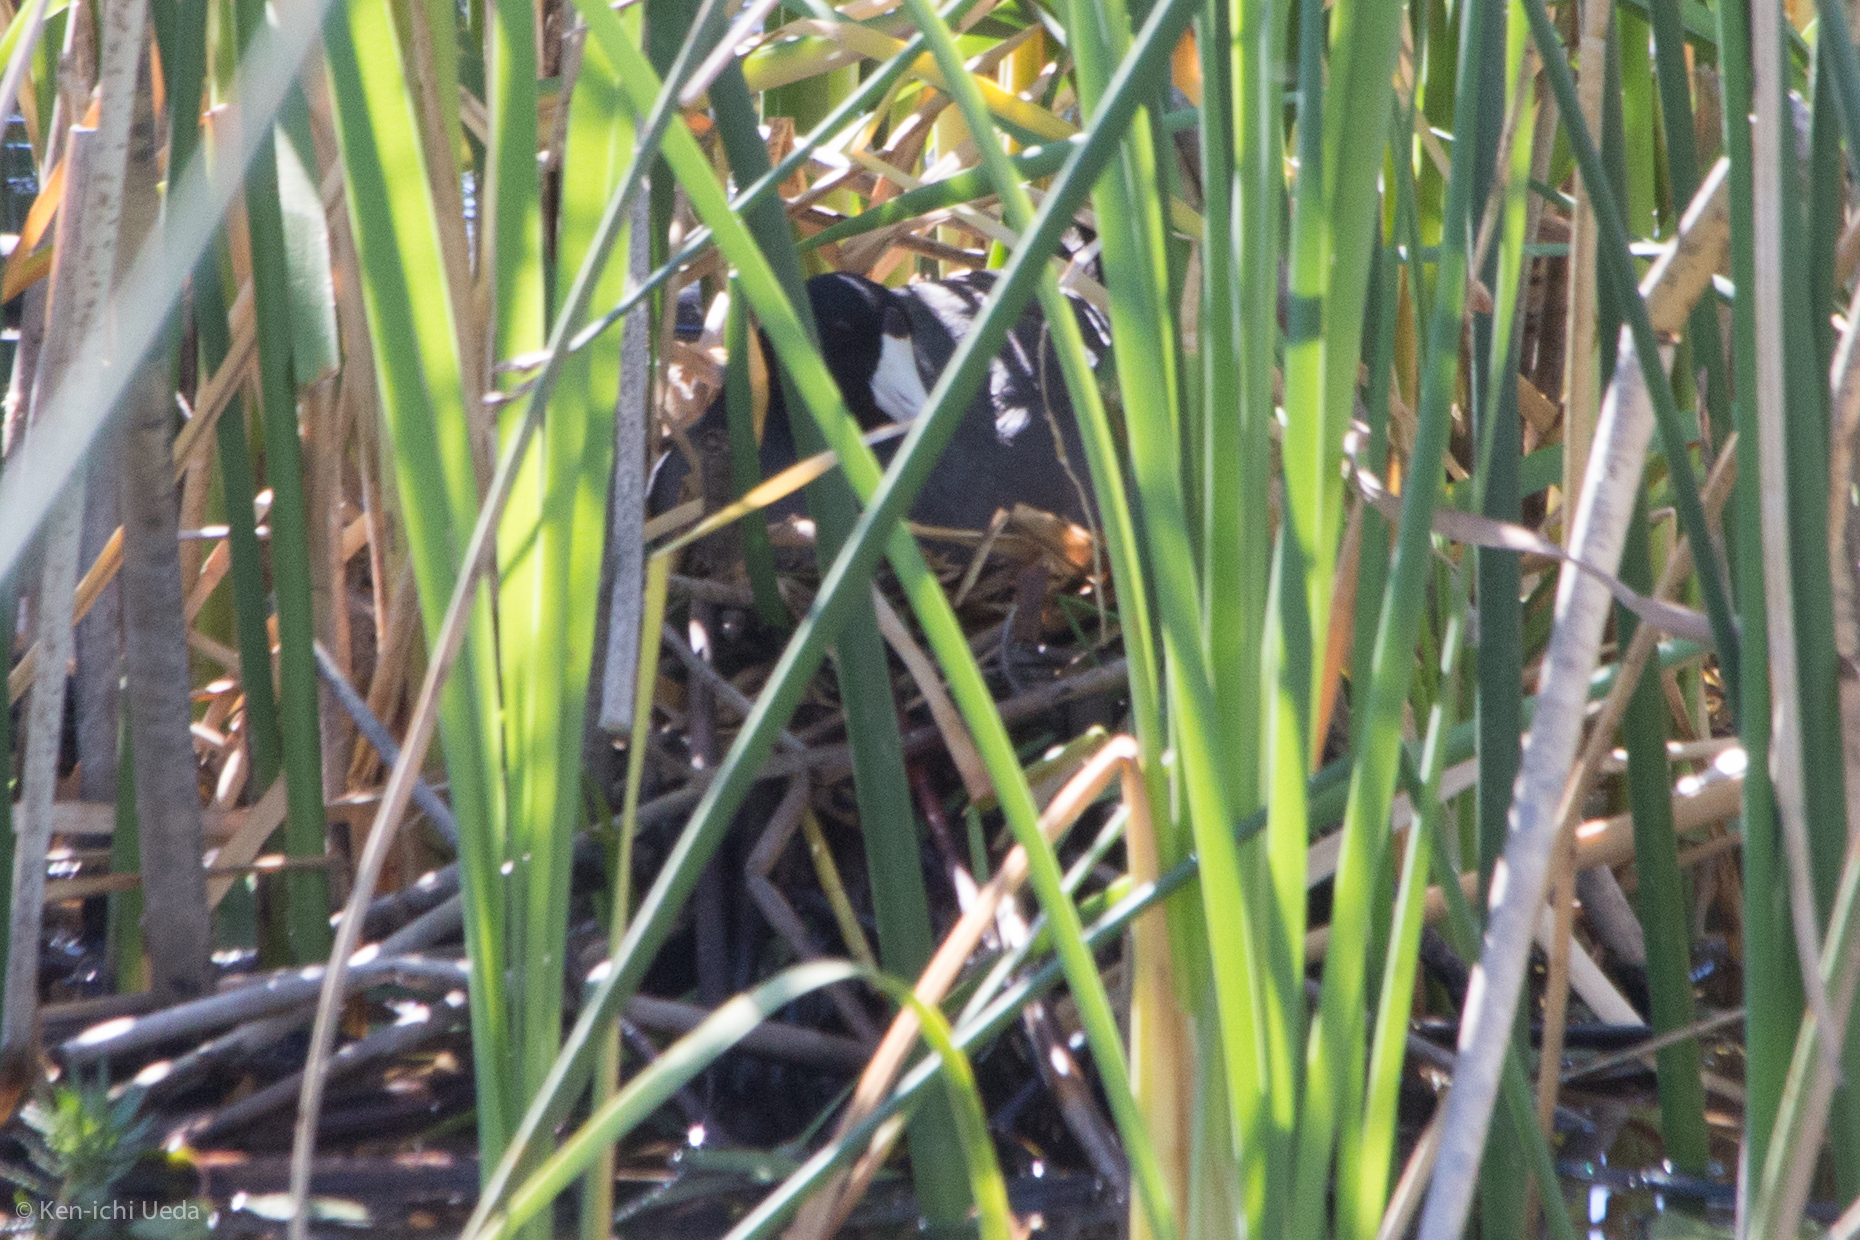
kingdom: Animalia
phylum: Chordata
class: Aves
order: Gruiformes
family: Rallidae
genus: Fulica
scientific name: Fulica americana
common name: American coot
